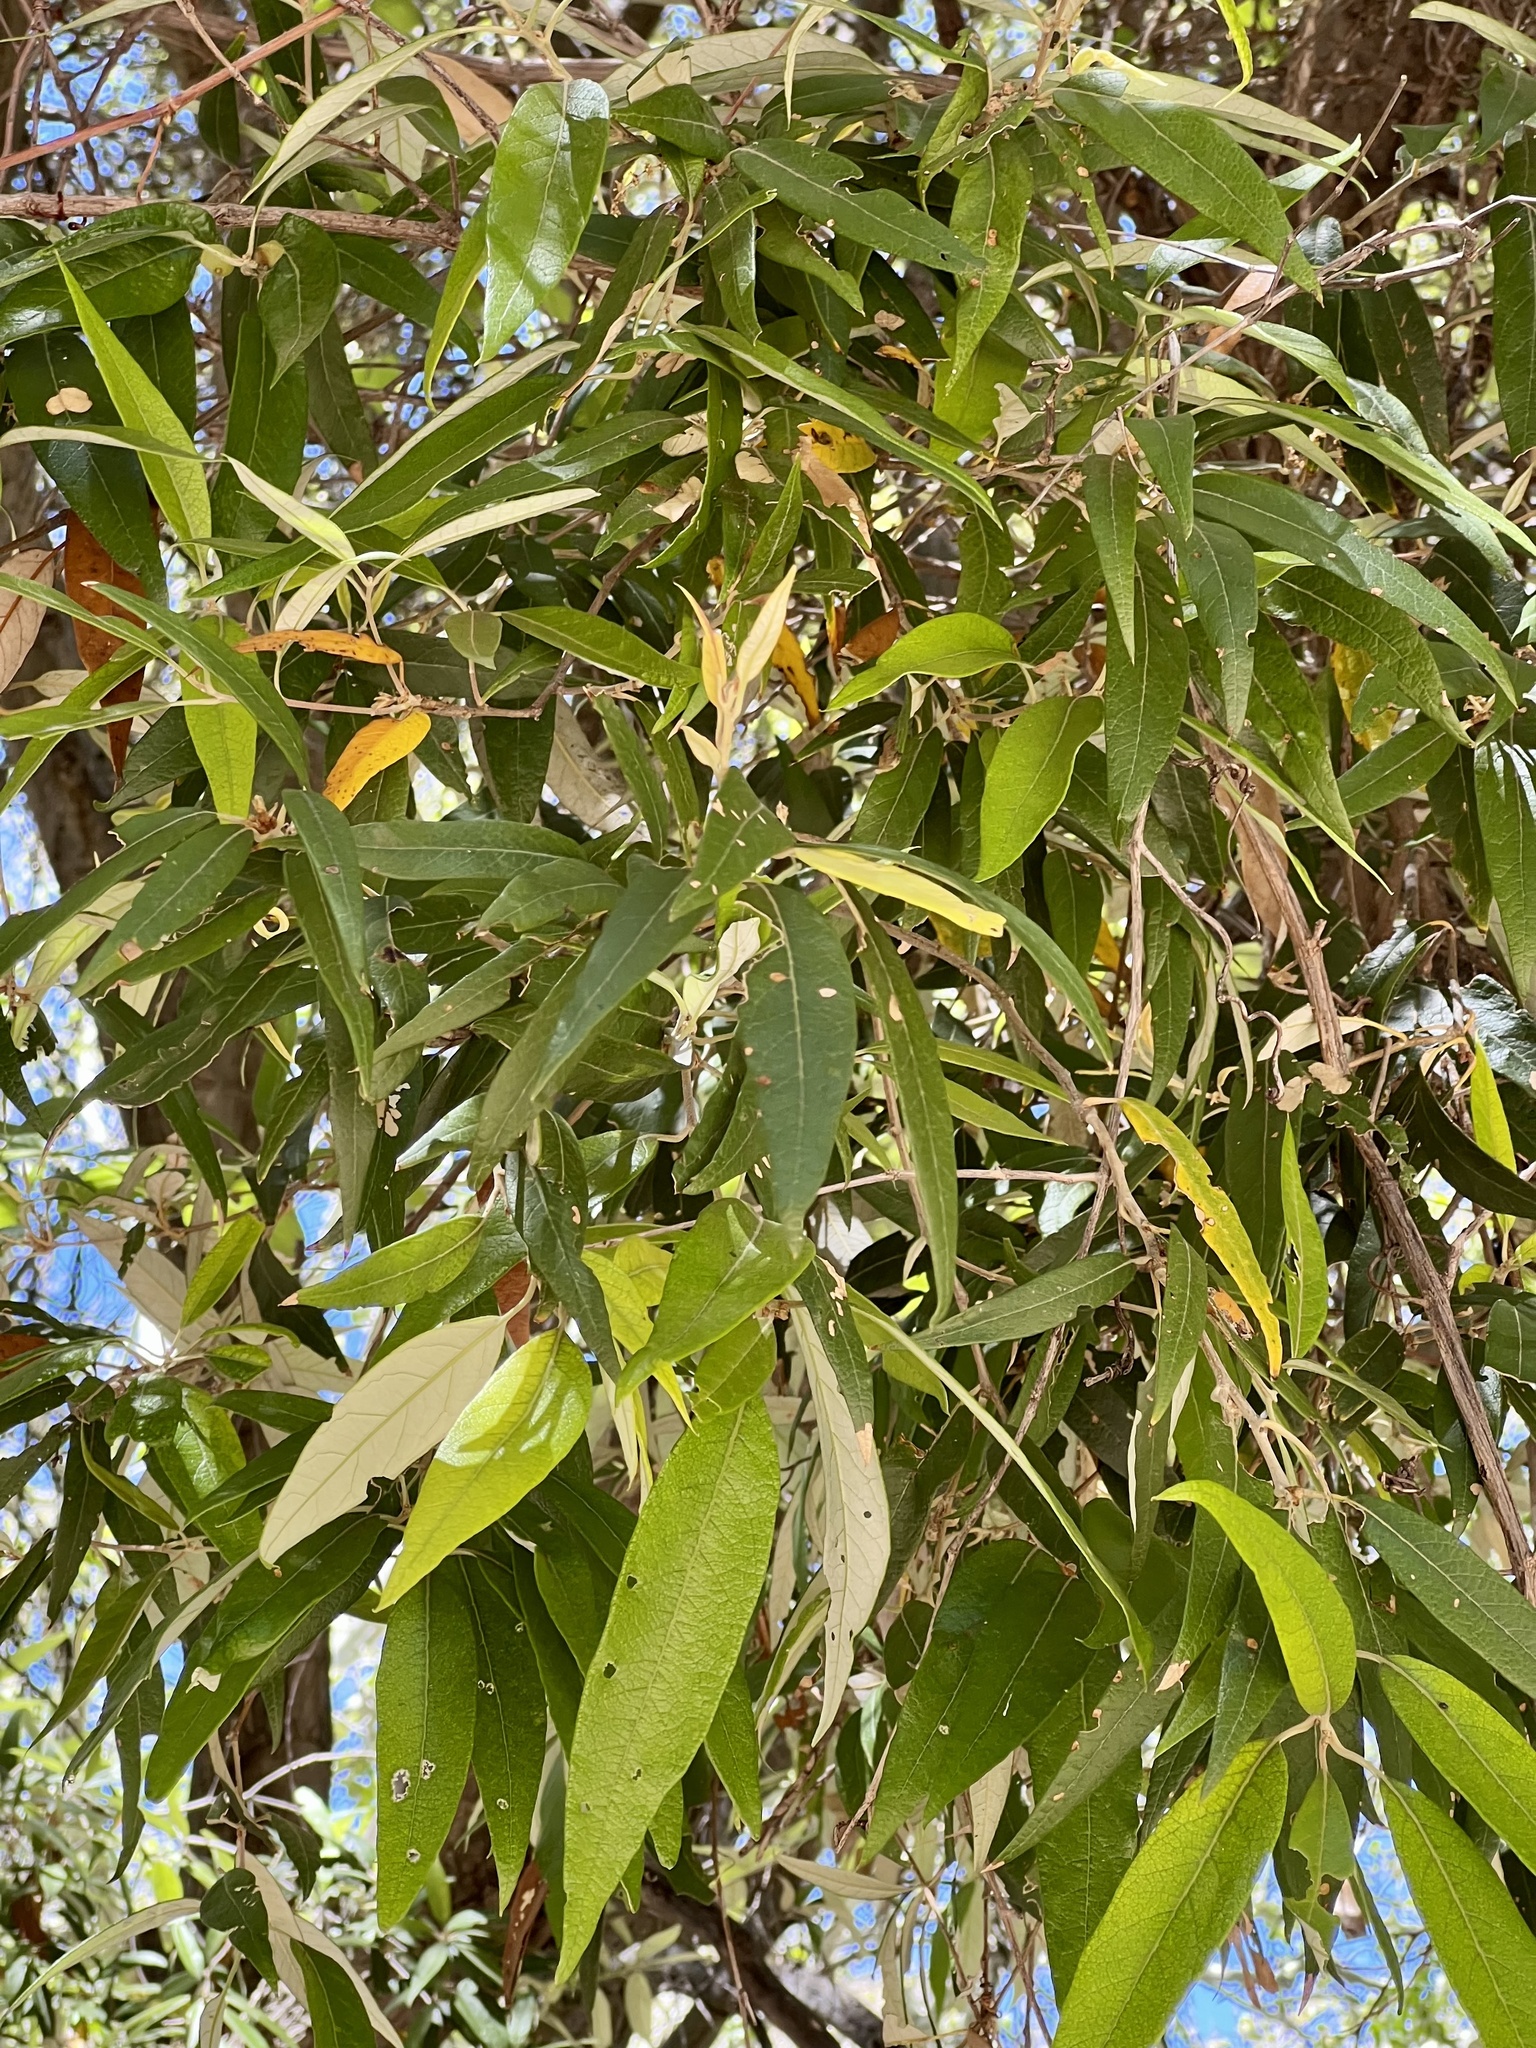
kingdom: Plantae
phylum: Tracheophyta
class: Magnoliopsida
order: Malpighiales
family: Salicaceae
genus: Salix
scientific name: Salix gooddingii
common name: Goodding's willow
